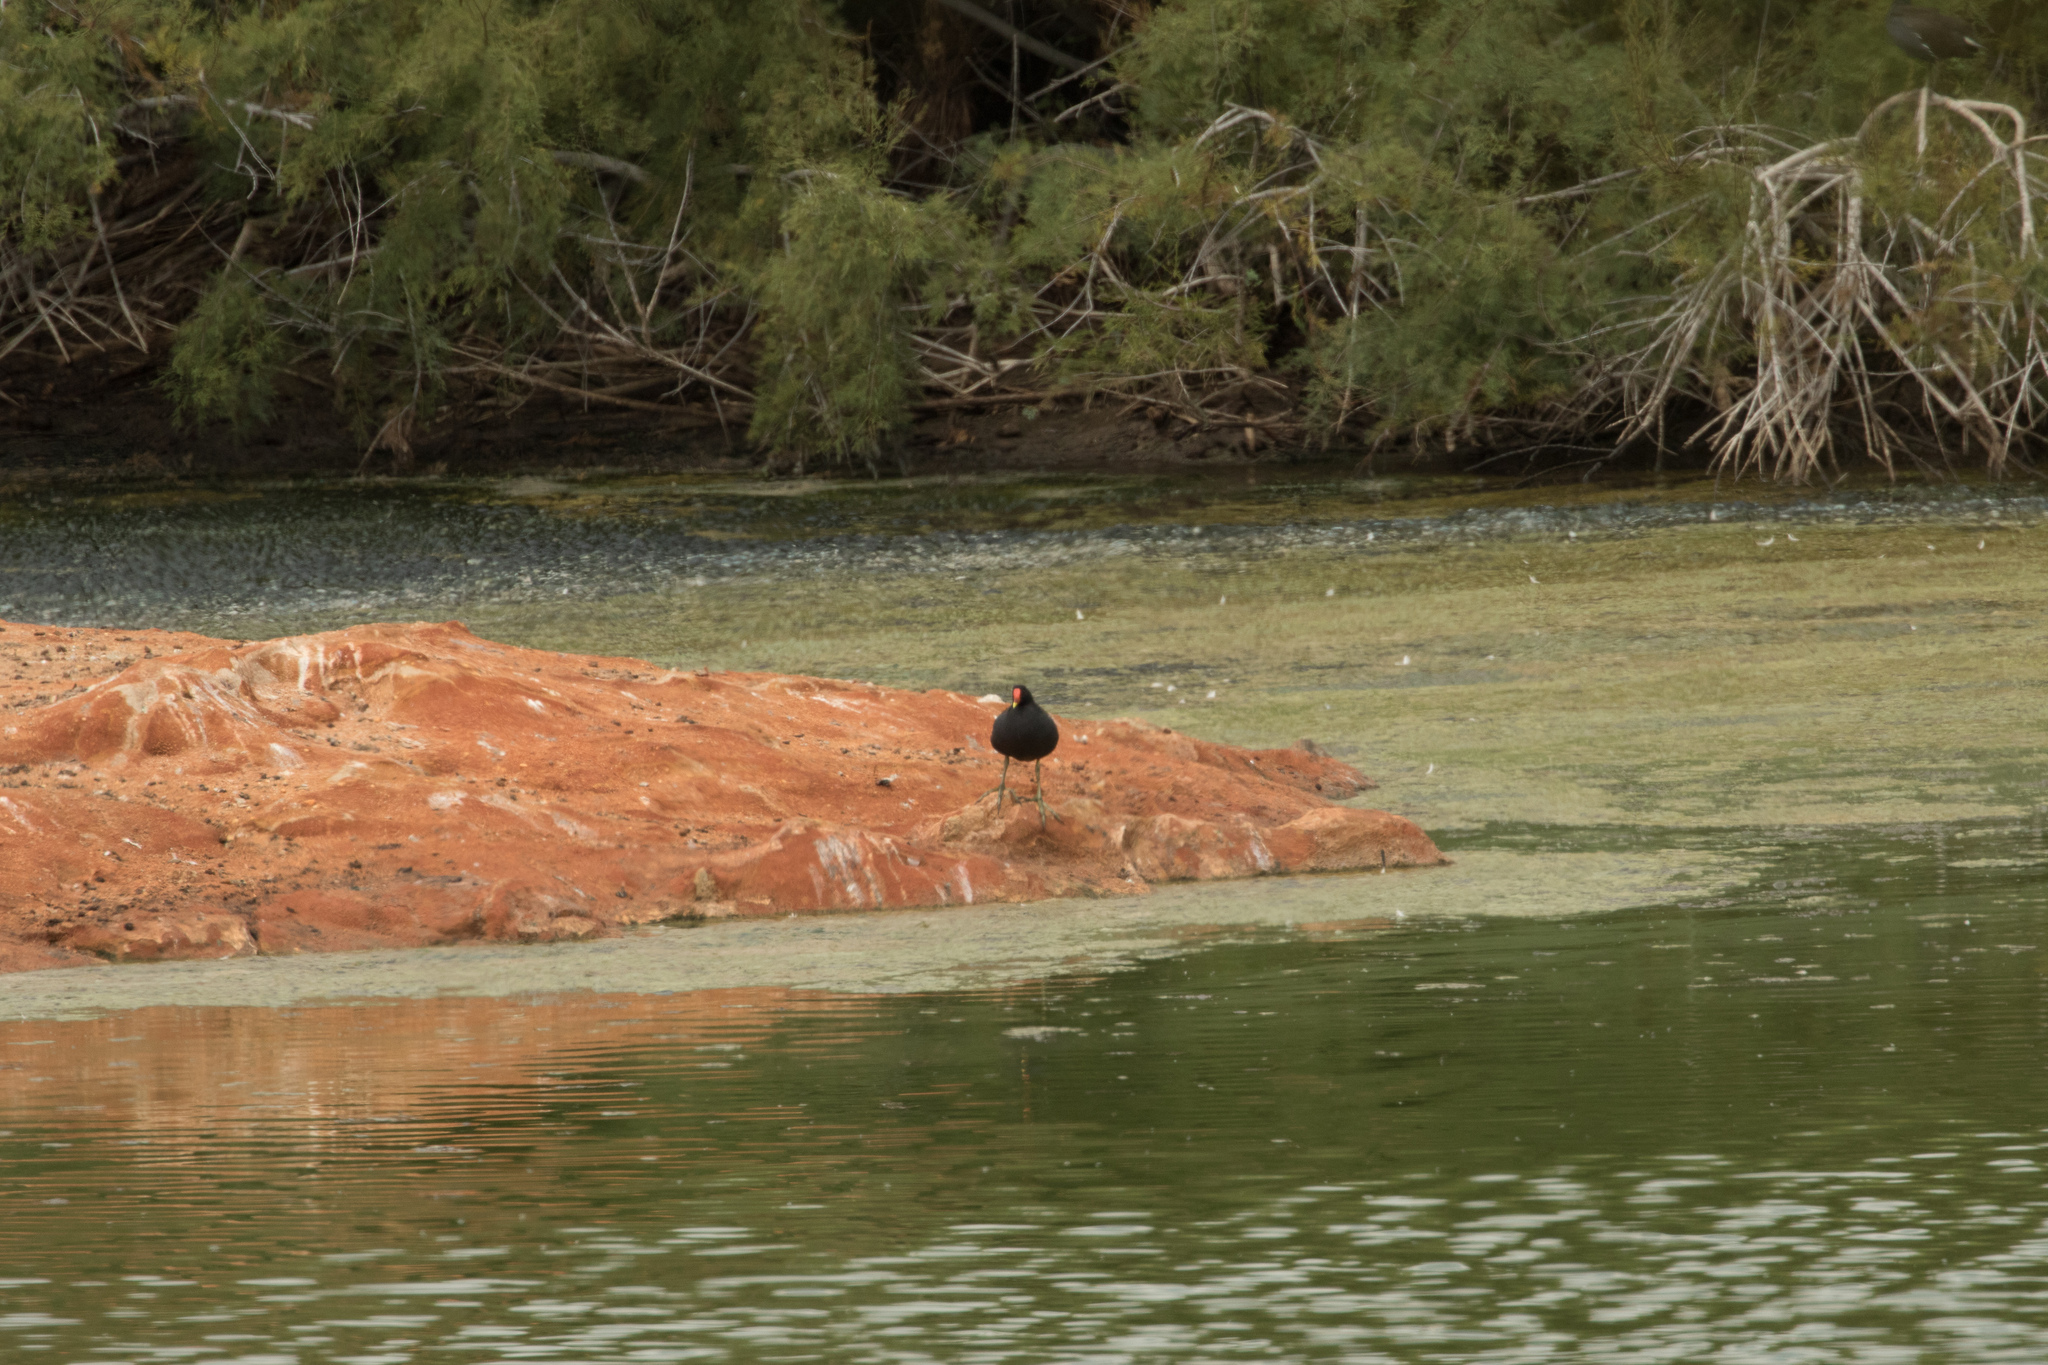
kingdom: Animalia
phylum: Chordata
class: Aves
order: Gruiformes
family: Rallidae
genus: Gallinula
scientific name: Gallinula chloropus
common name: Common moorhen
